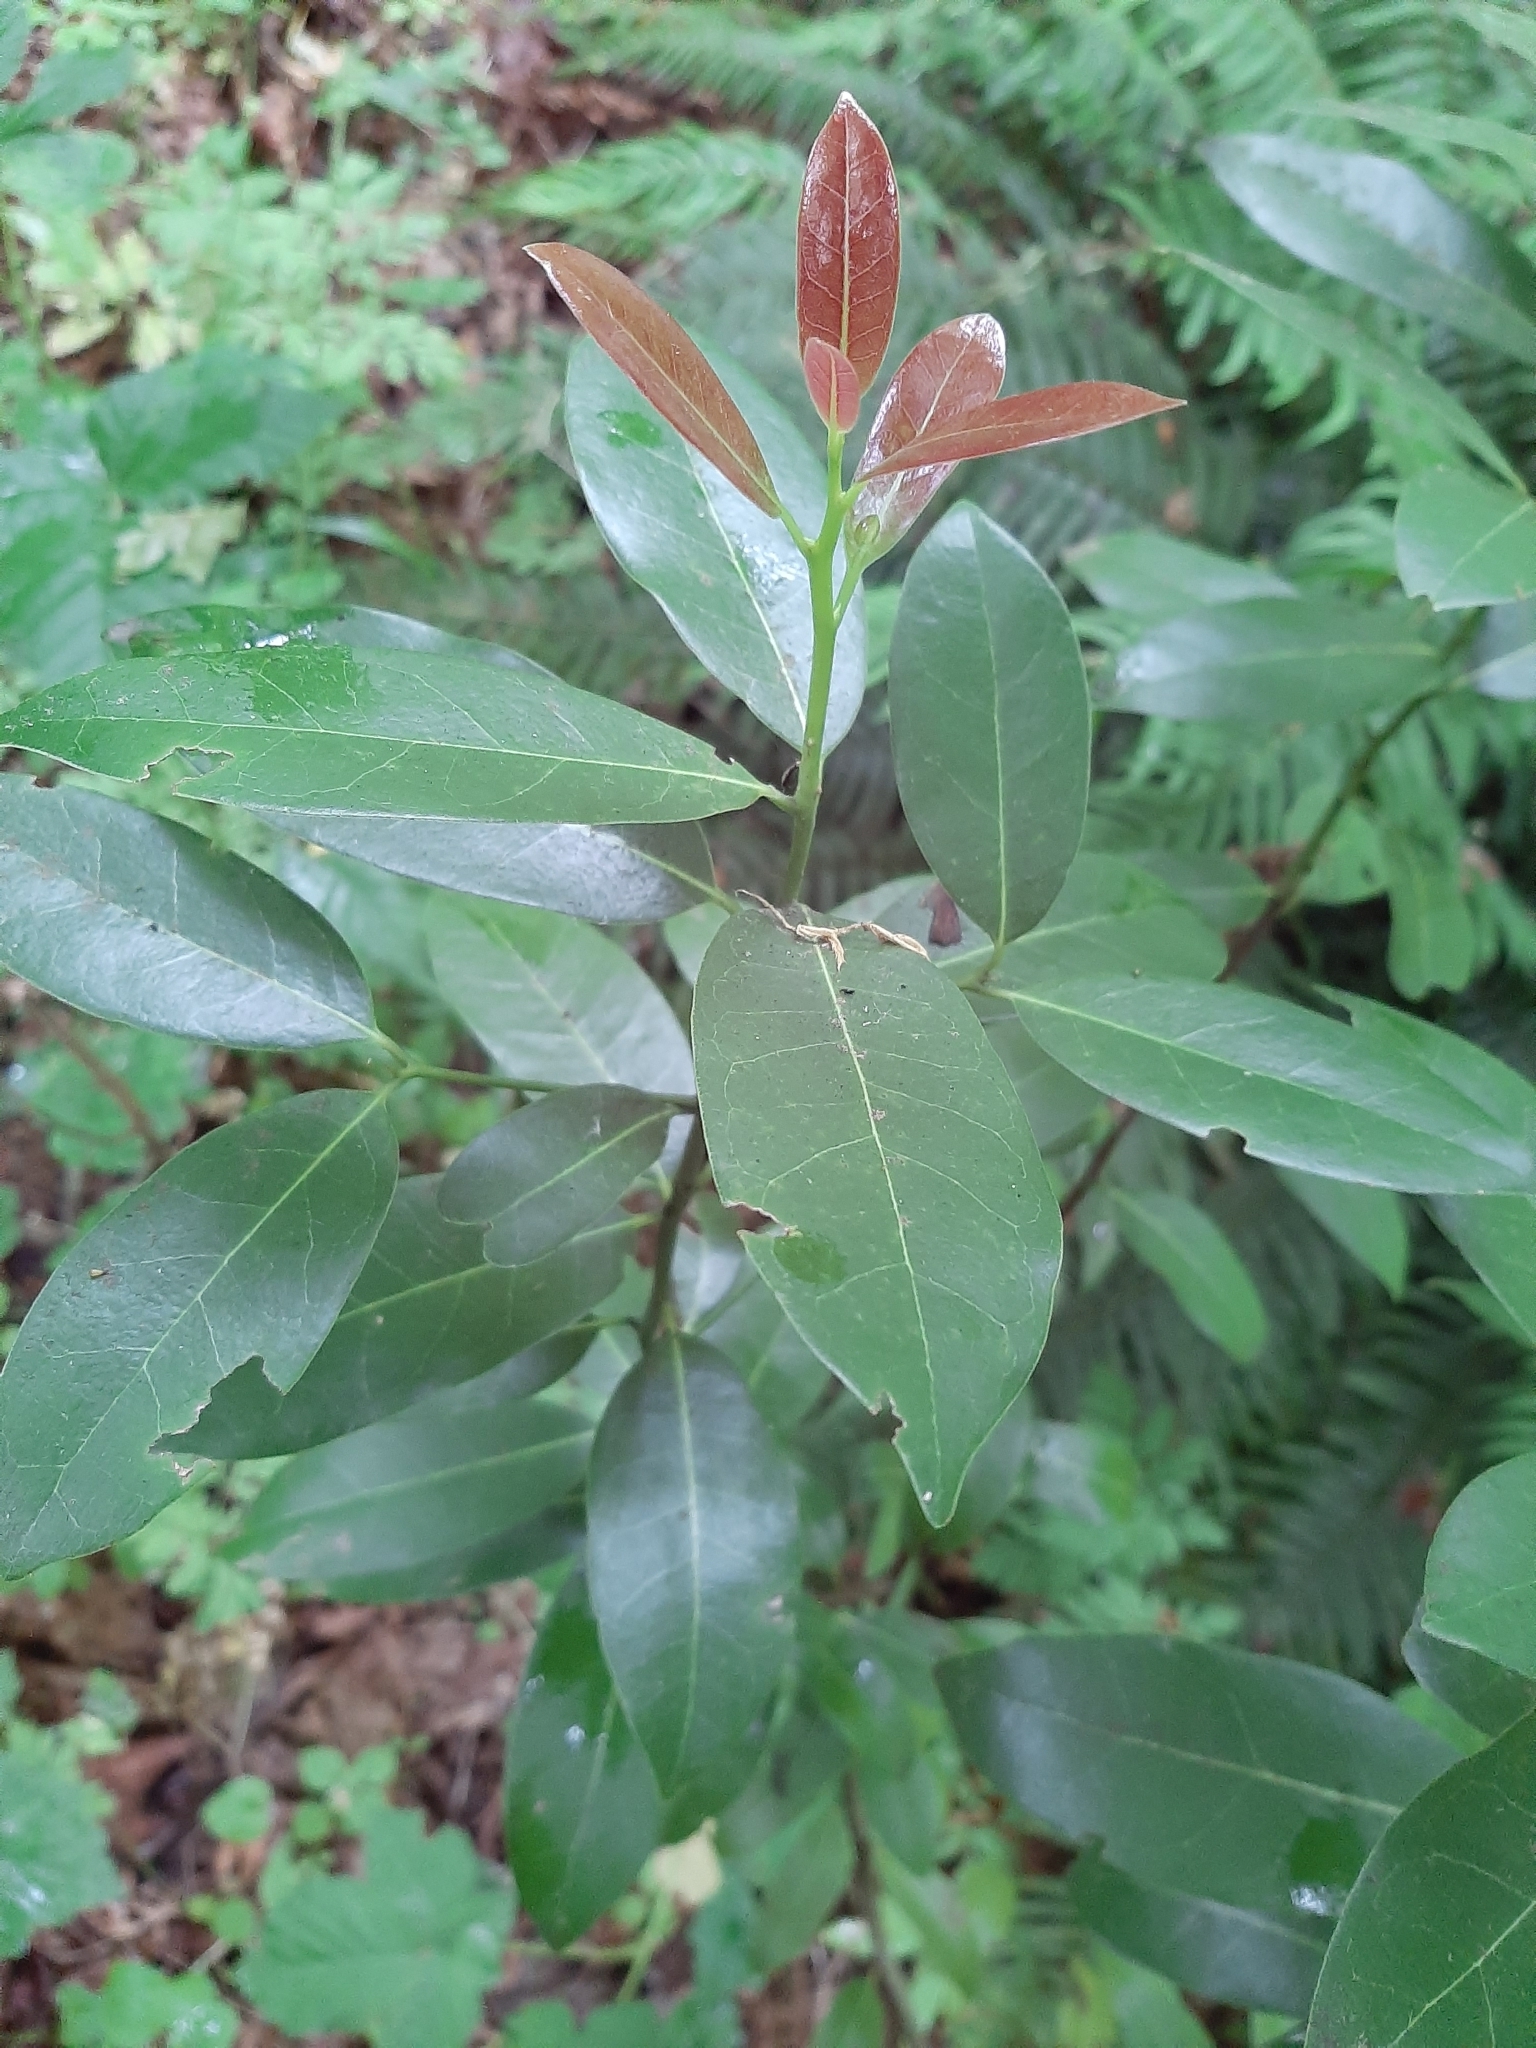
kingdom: Plantae
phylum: Tracheophyta
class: Magnoliopsida
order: Laurales
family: Lauraceae
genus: Umbellularia
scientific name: Umbellularia californica
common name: California bay
